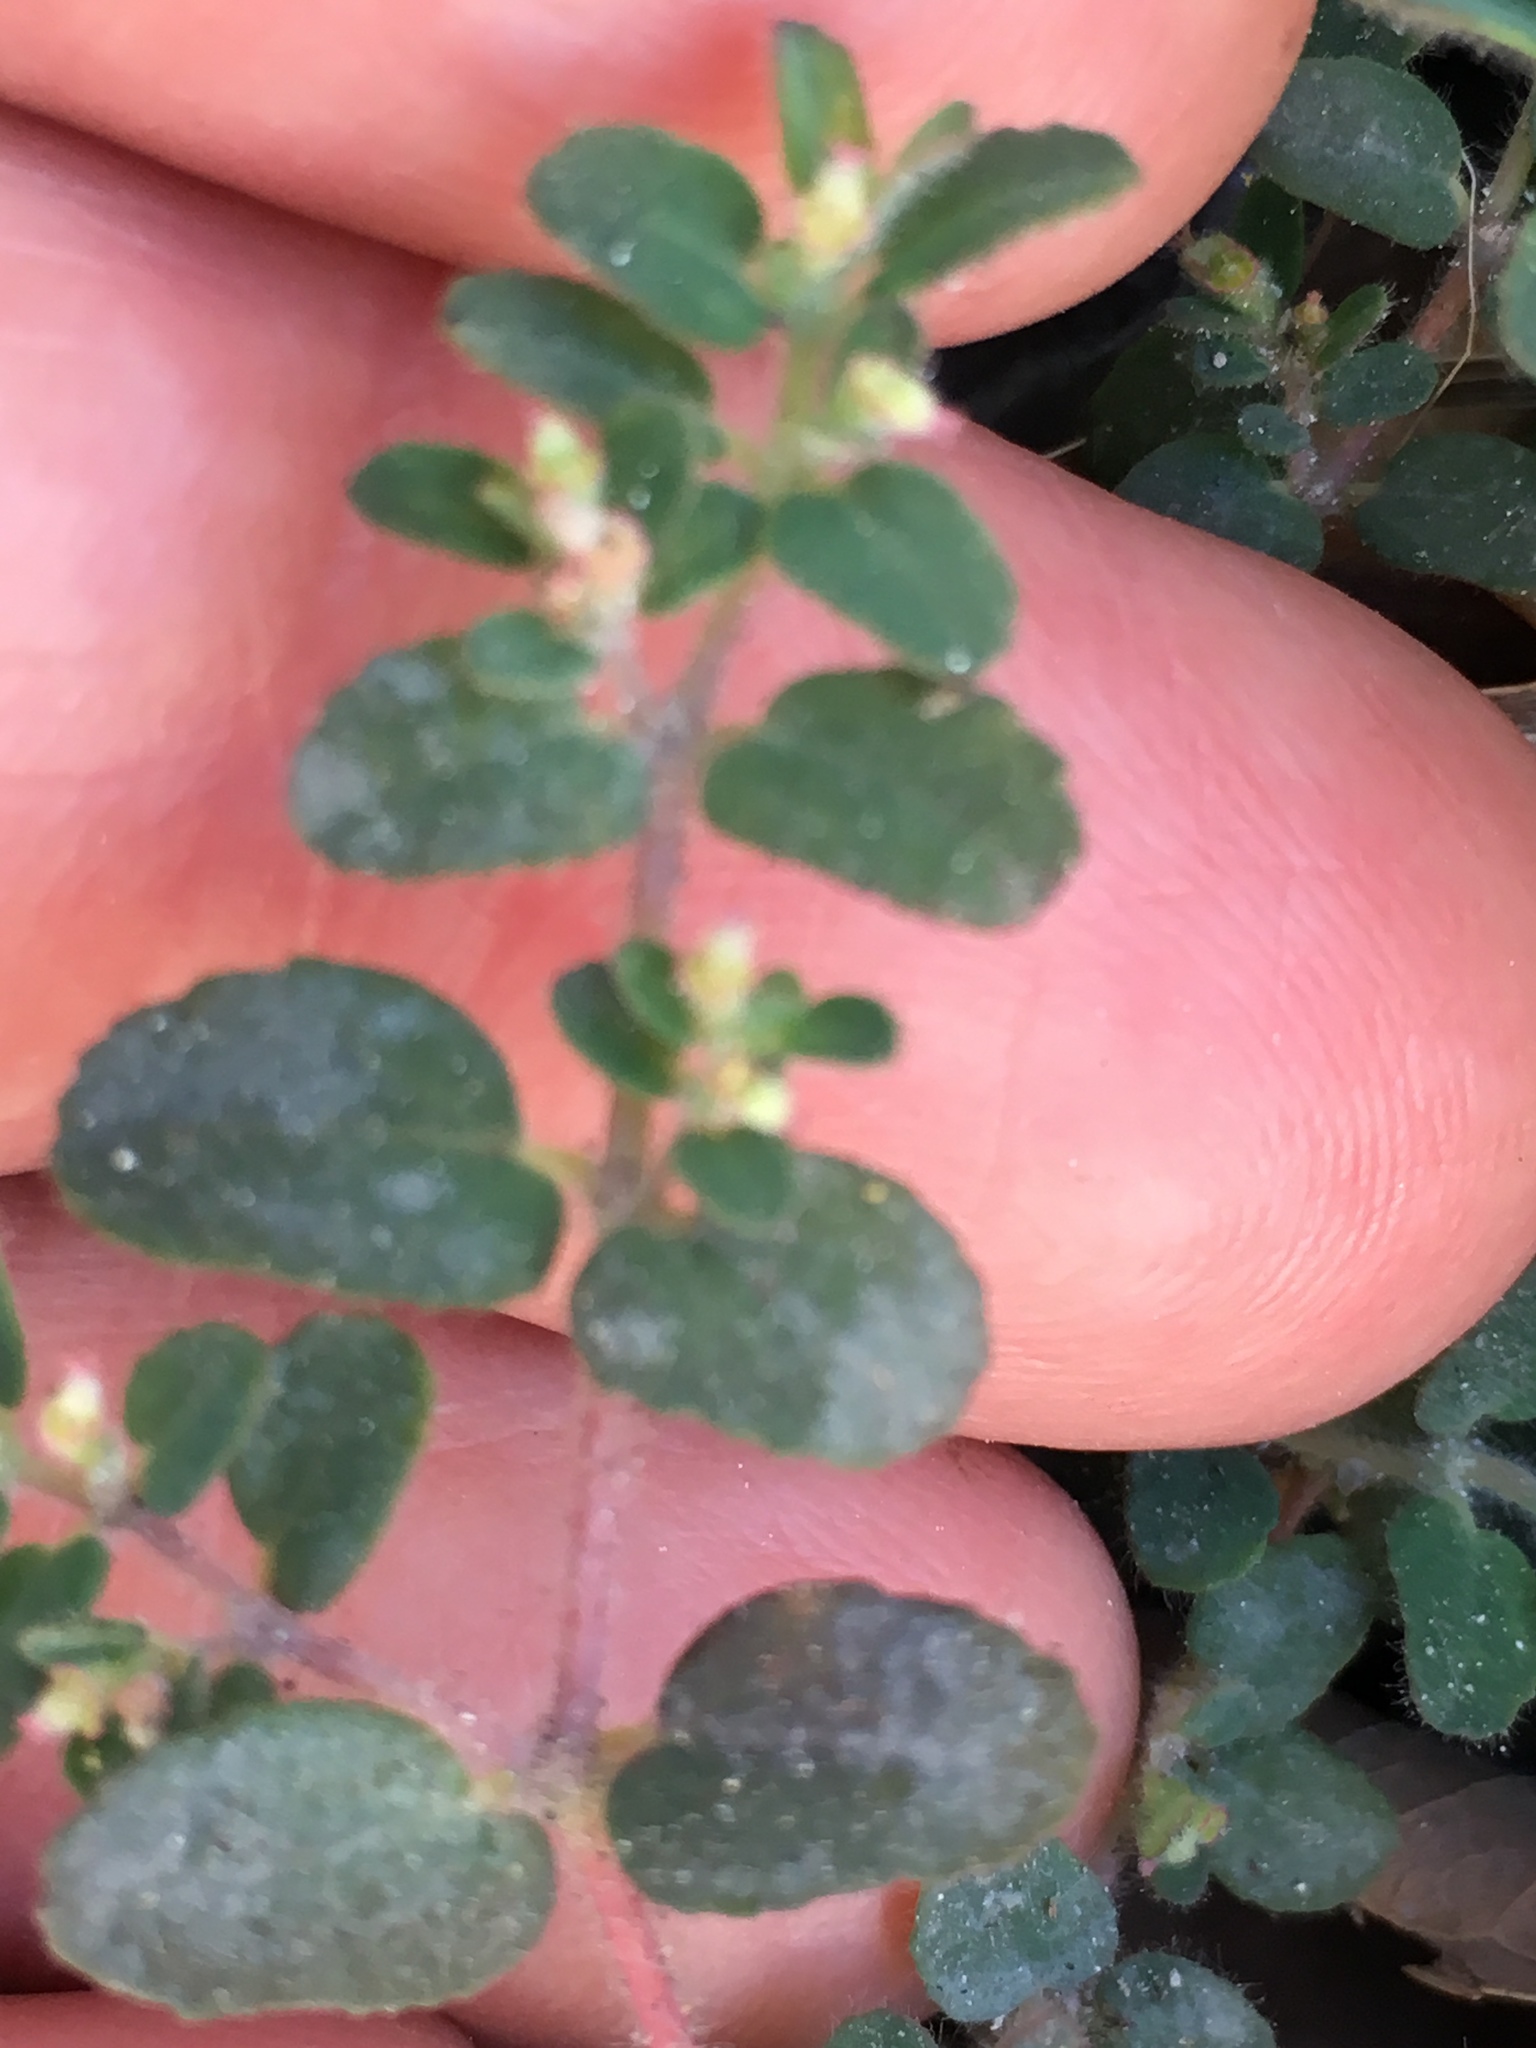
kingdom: Plantae
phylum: Tracheophyta
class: Magnoliopsida
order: Malpighiales
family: Euphorbiaceae
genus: Euphorbia
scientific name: Euphorbia cozumelensis
